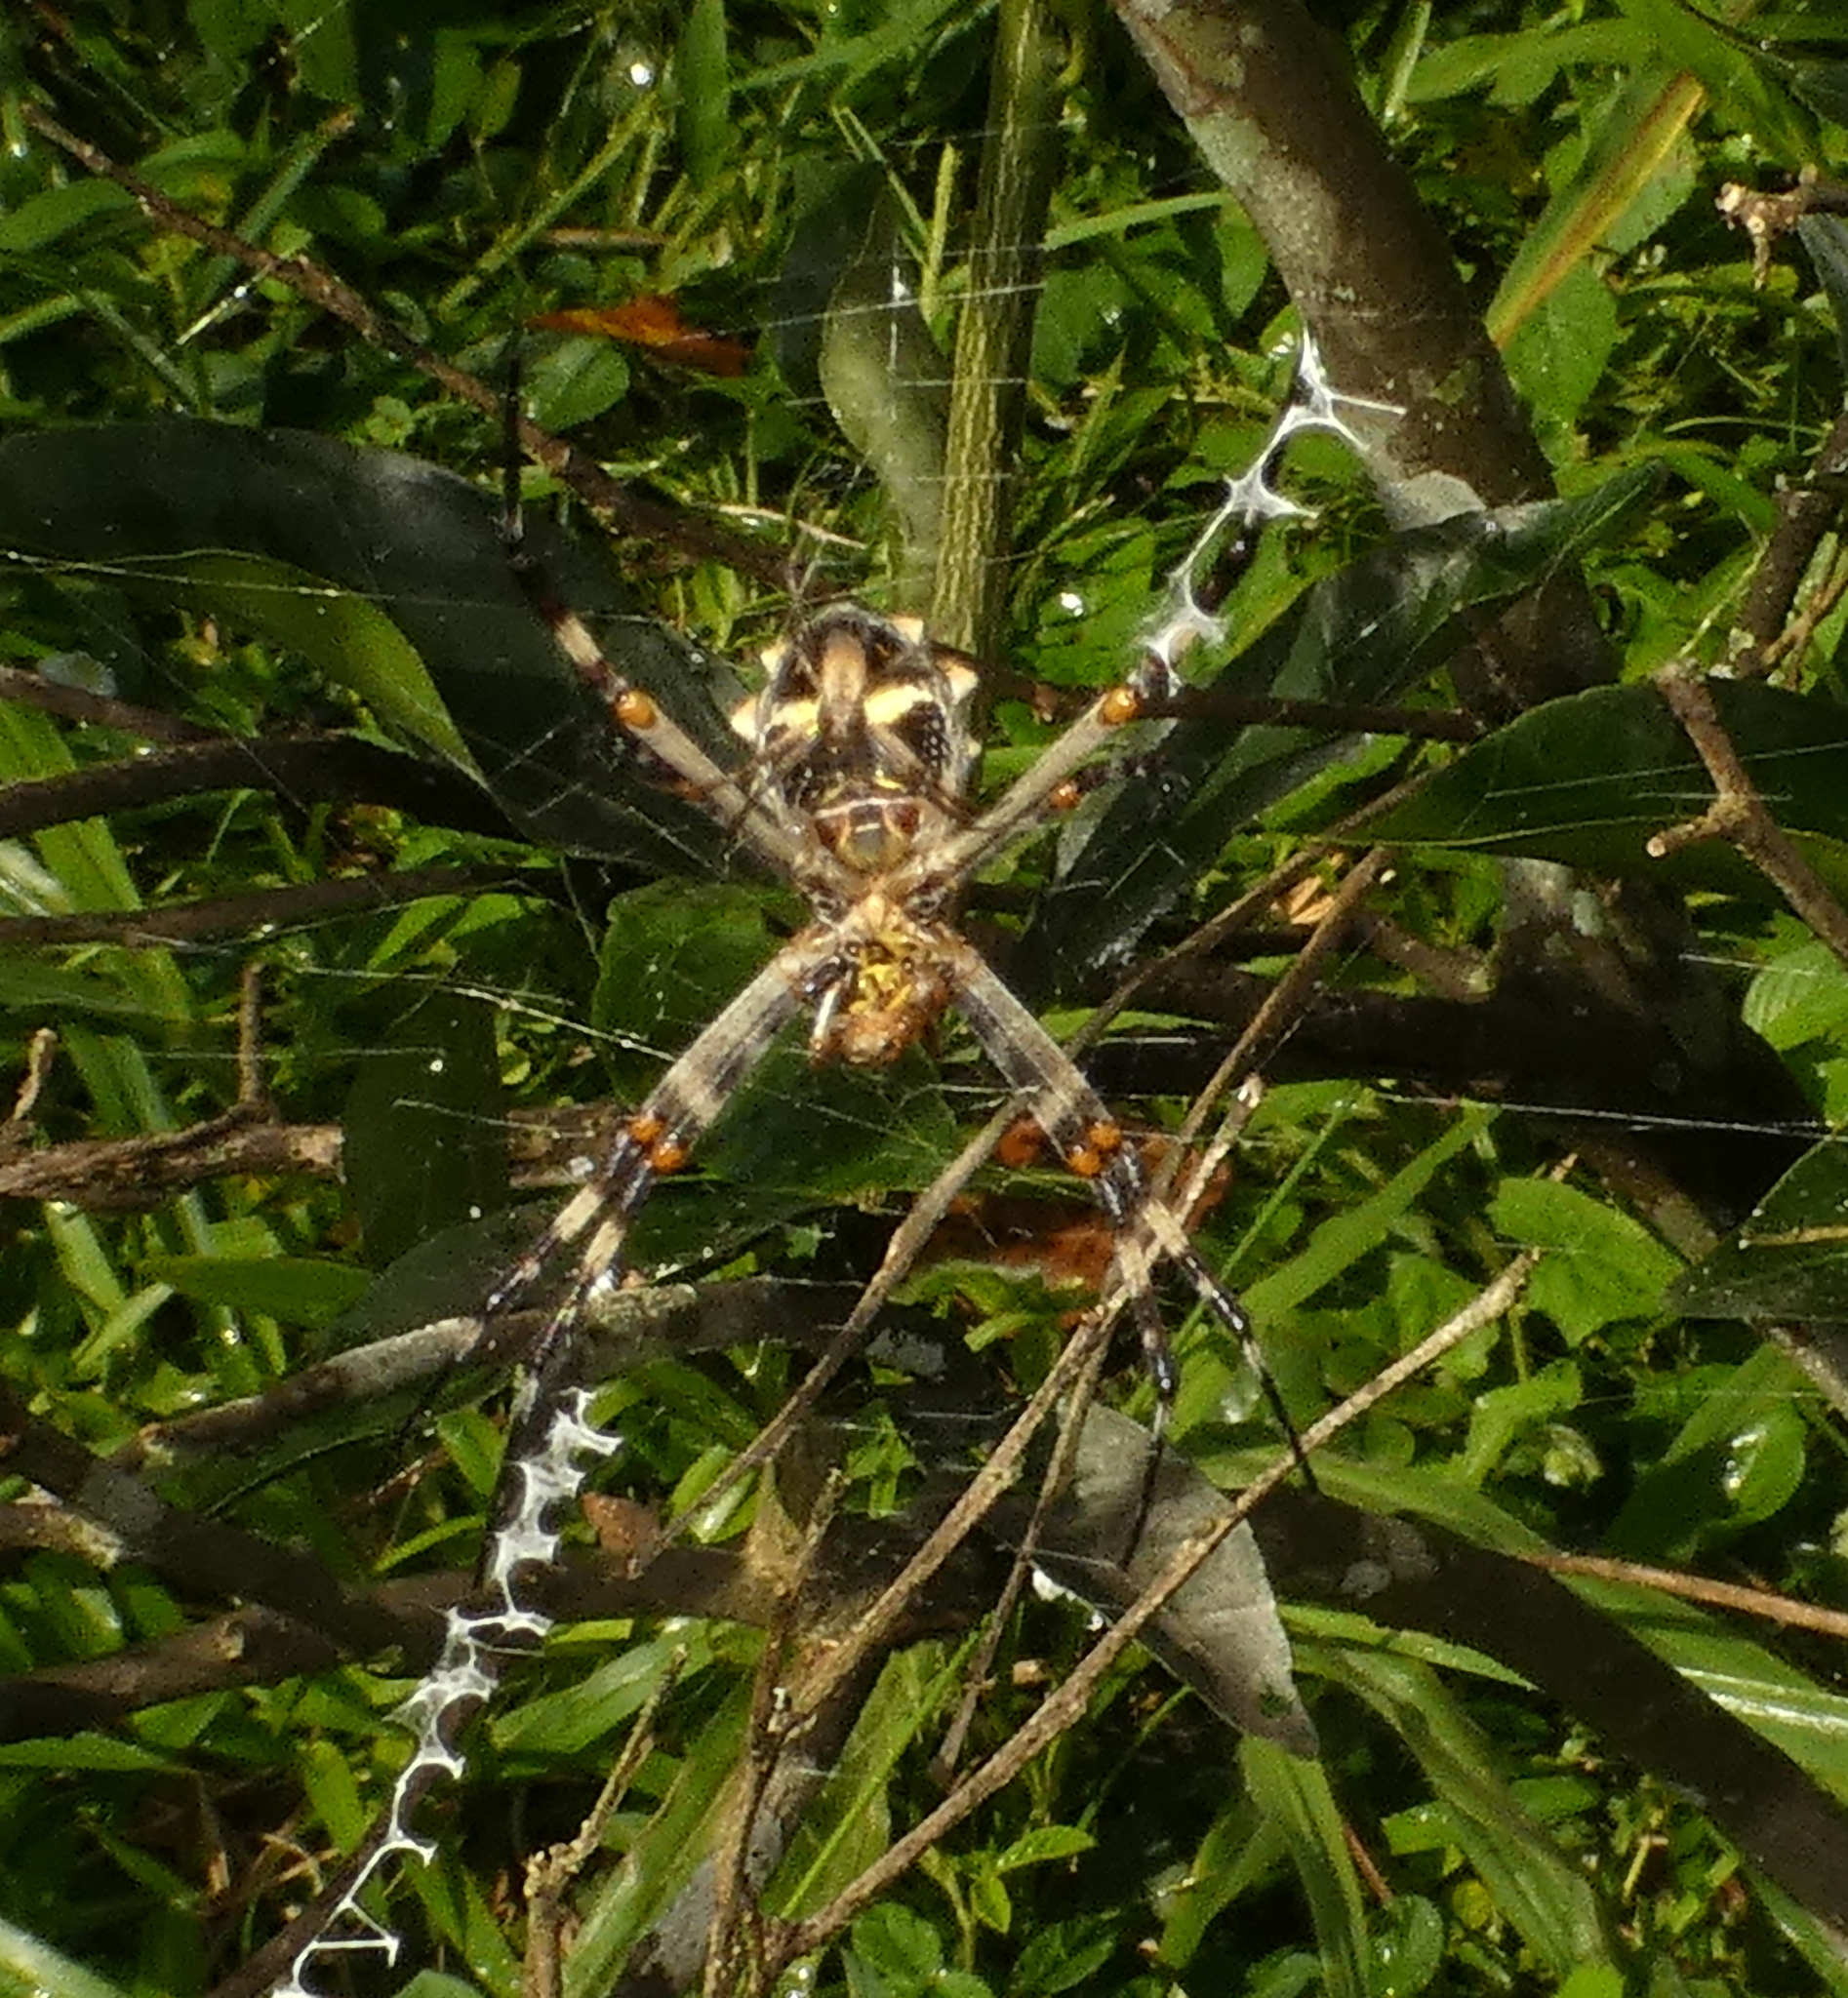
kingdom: Animalia
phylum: Arthropoda
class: Arachnida
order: Araneae
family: Araneidae
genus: Argiope
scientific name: Argiope argentata
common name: Orb weavers
